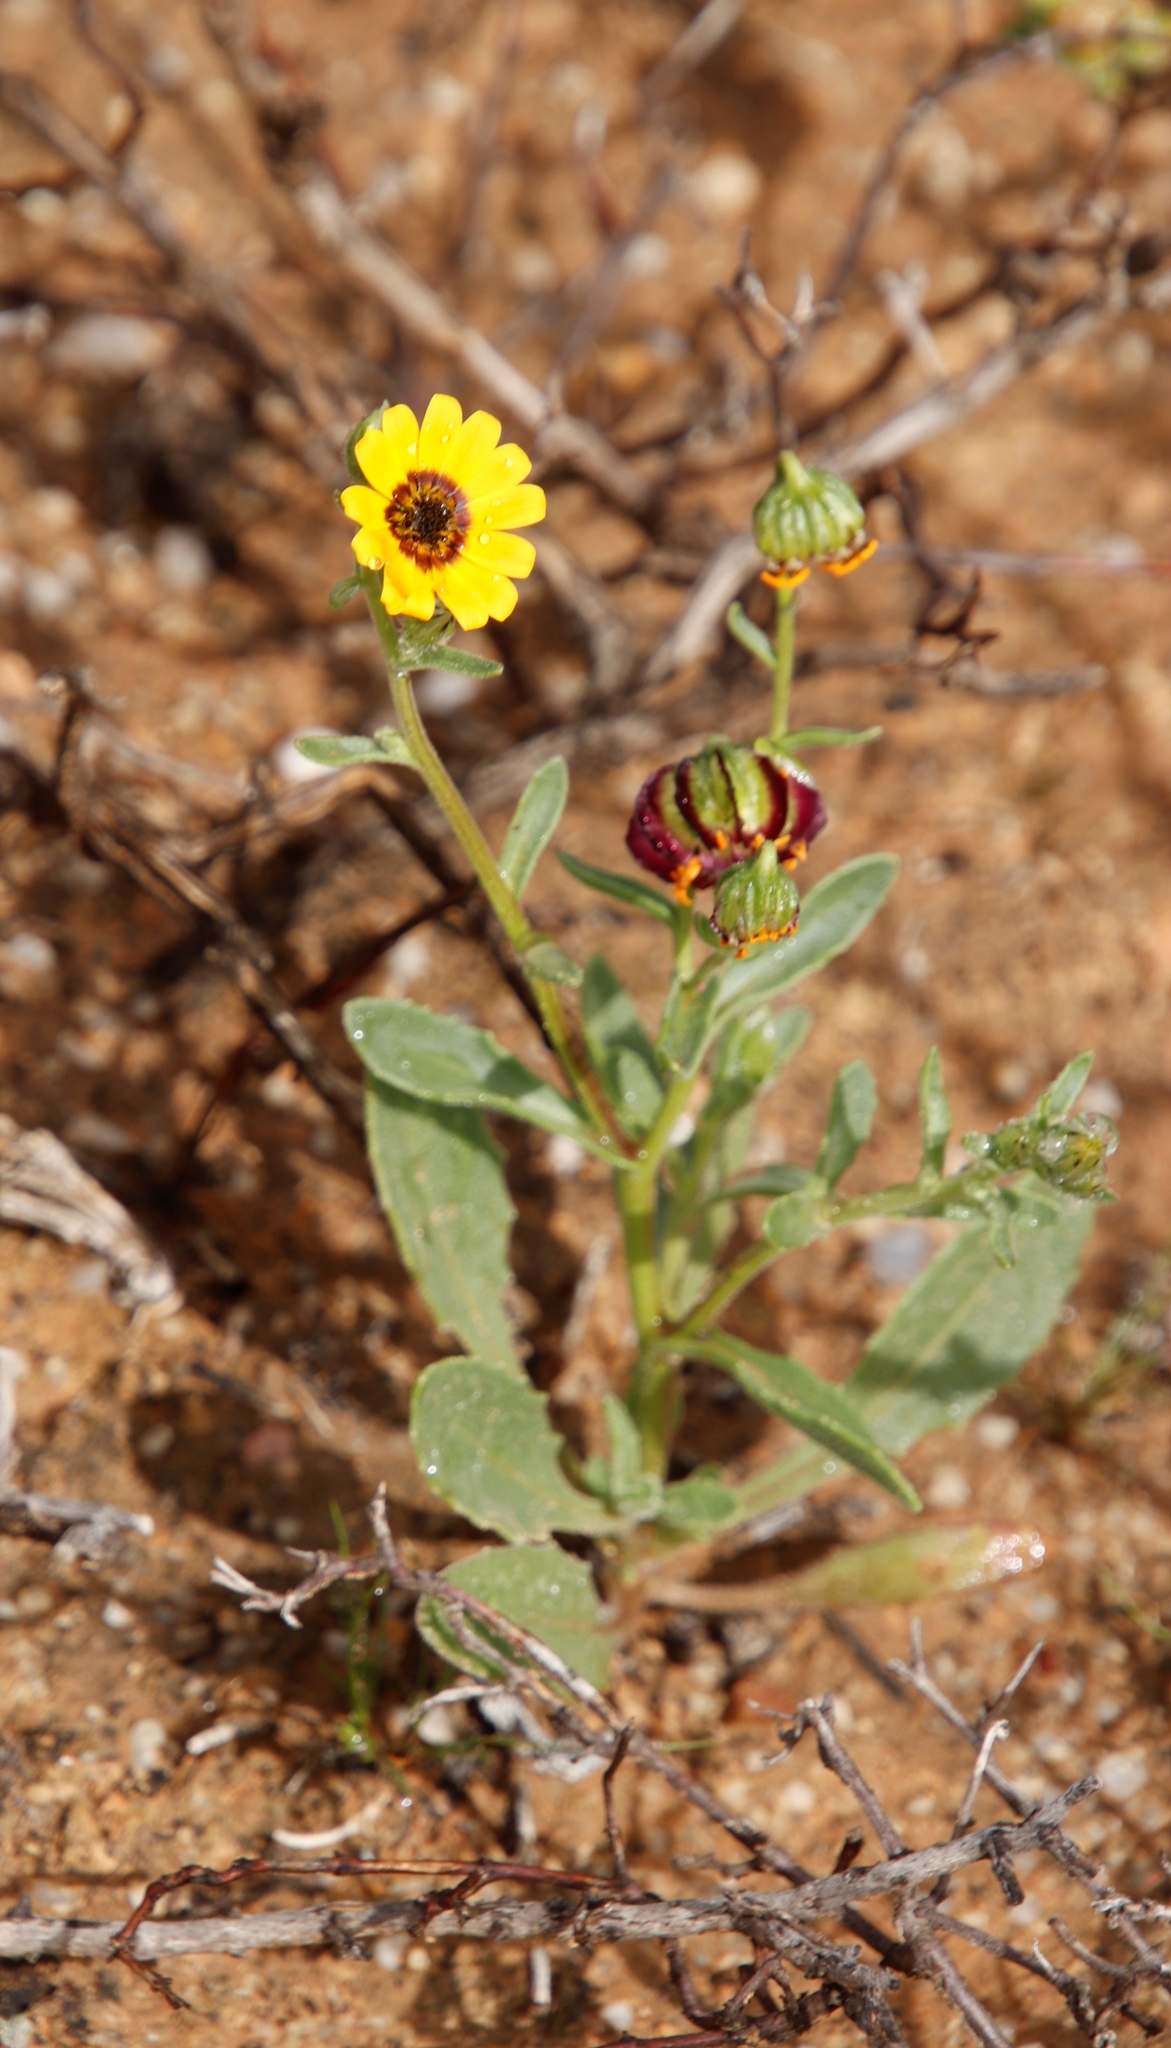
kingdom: Plantae
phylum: Tracheophyta
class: Magnoliopsida
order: Asterales
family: Asteraceae
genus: Osteospermum
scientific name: Osteospermum monstrosum
